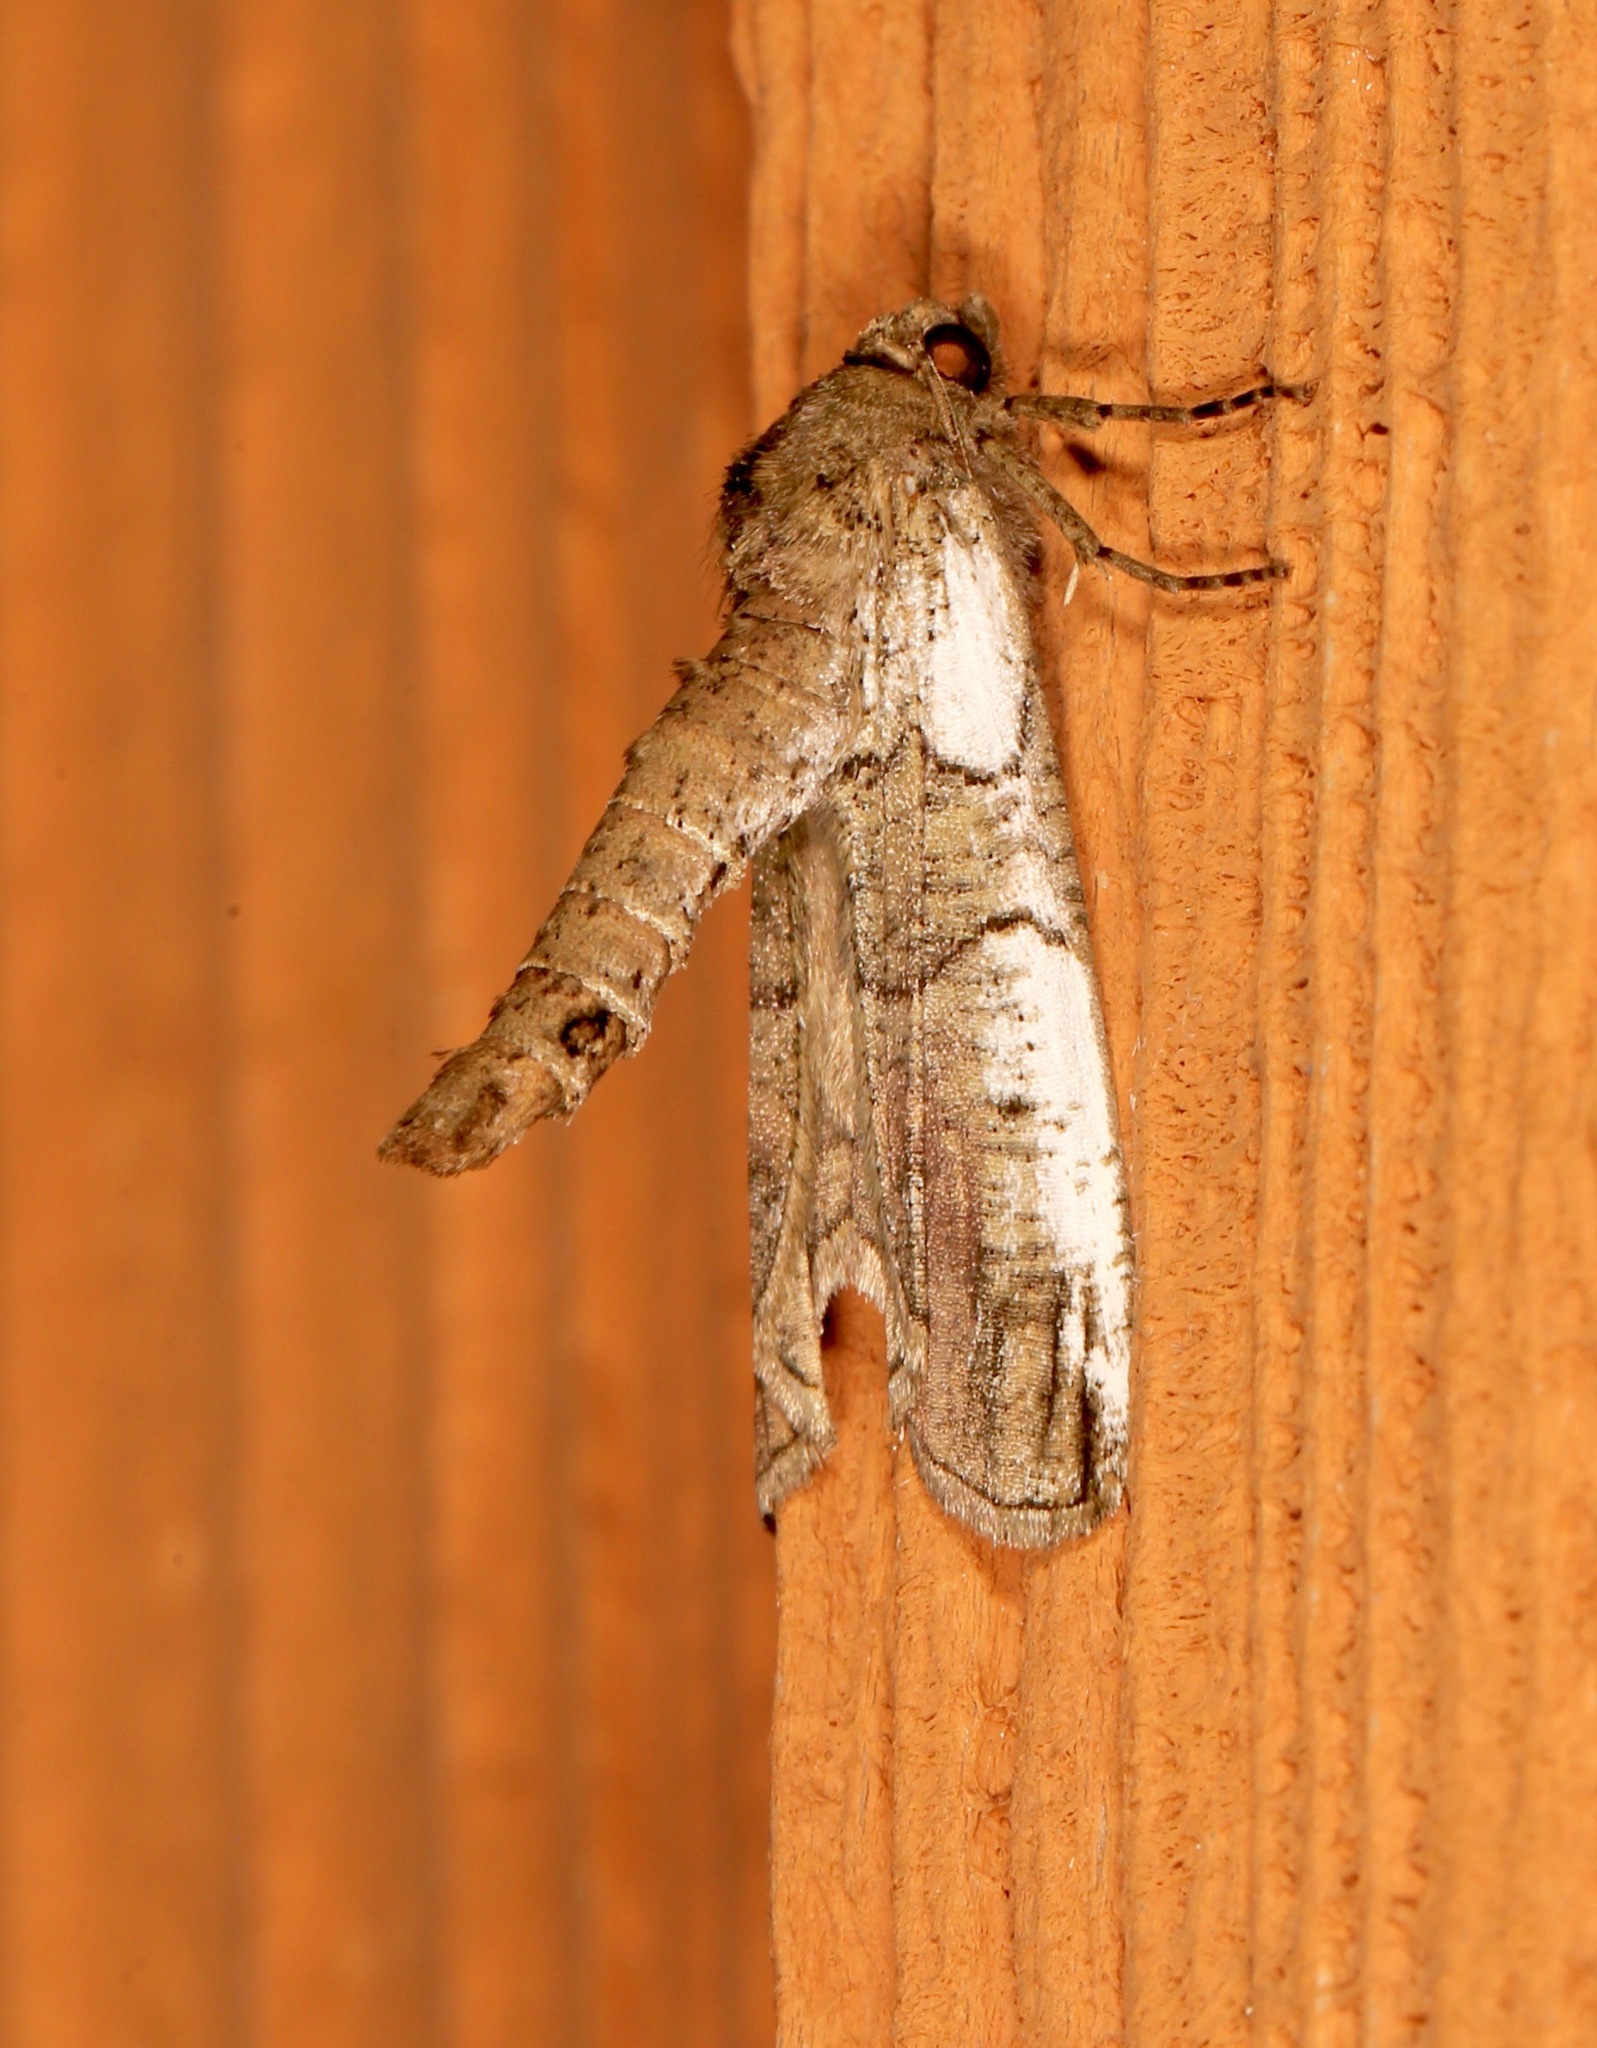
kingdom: Animalia
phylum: Arthropoda
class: Insecta
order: Lepidoptera
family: Geometridae
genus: Ceratonyx
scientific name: Ceratonyx satanaria
